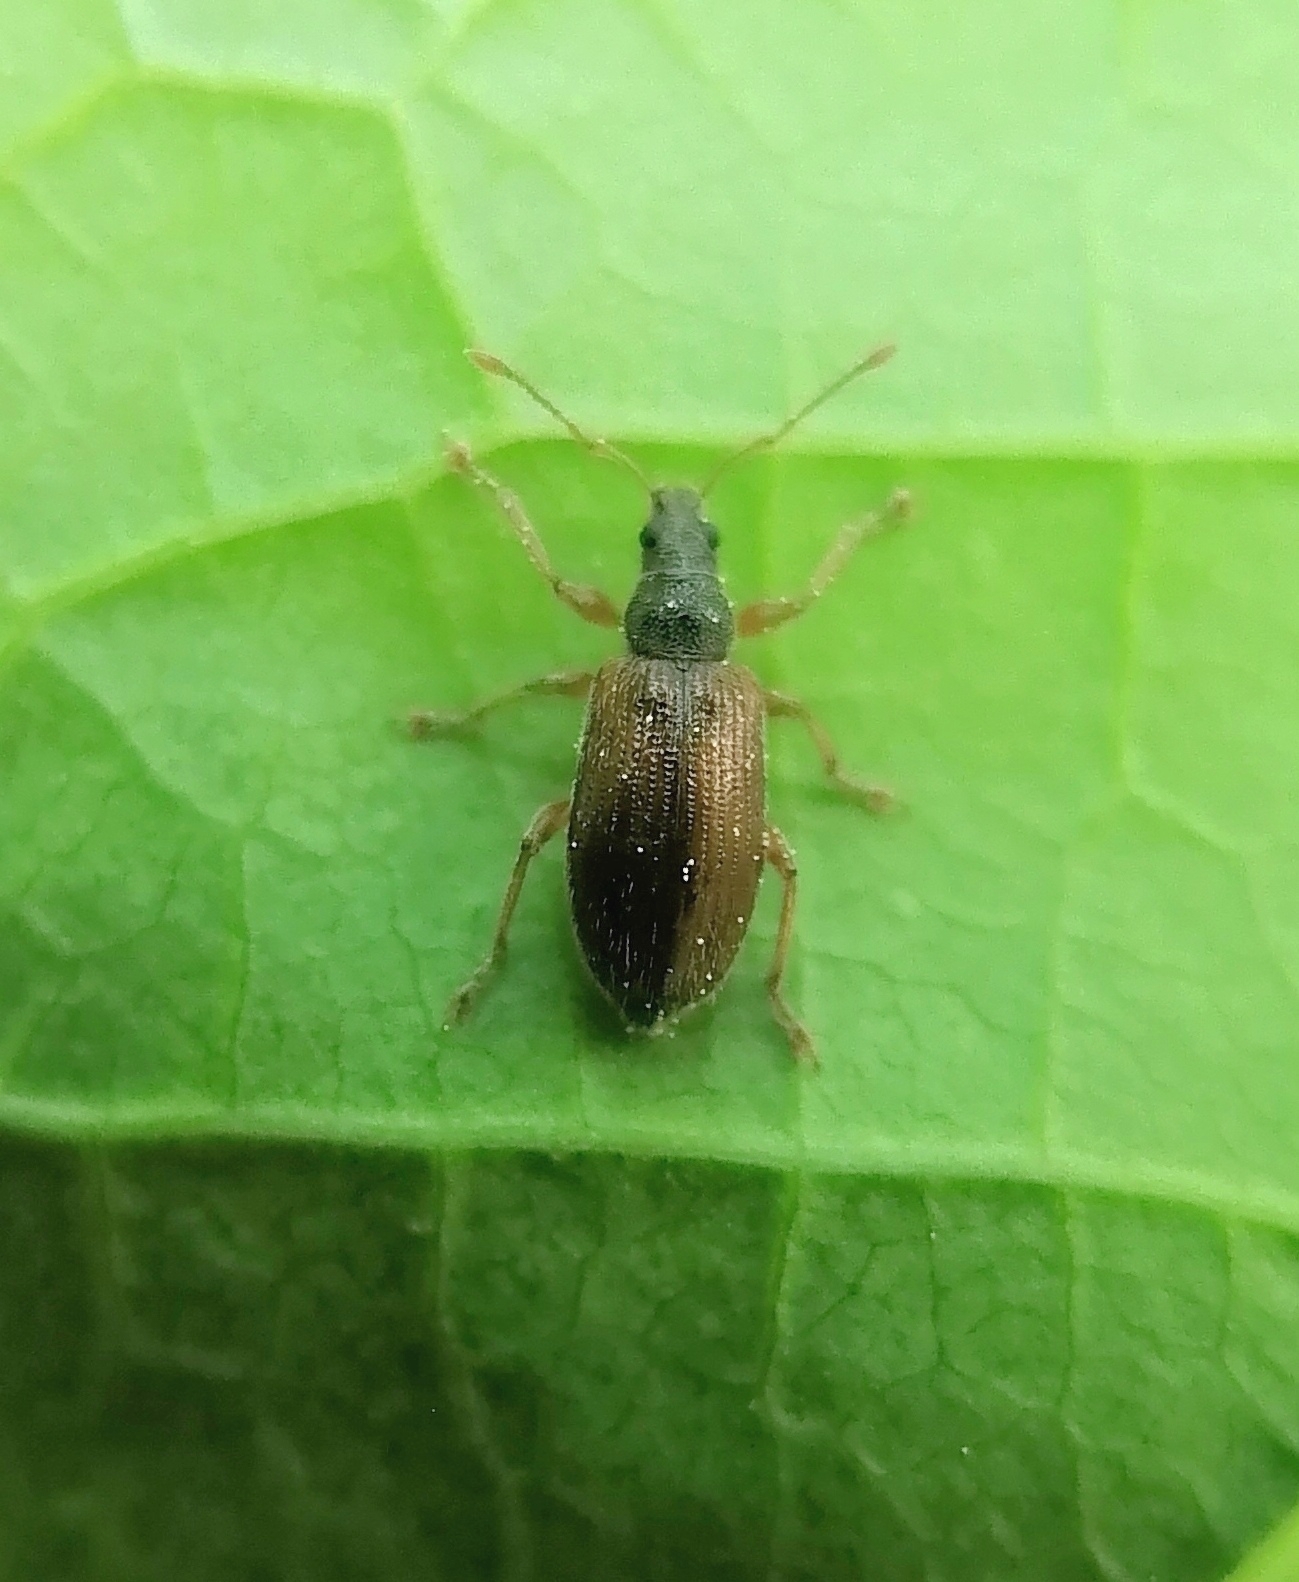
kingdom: Animalia
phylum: Arthropoda
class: Insecta
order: Coleoptera
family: Curculionidae
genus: Phyllobius
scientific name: Phyllobius oblongus
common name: Brown leaf weevil
